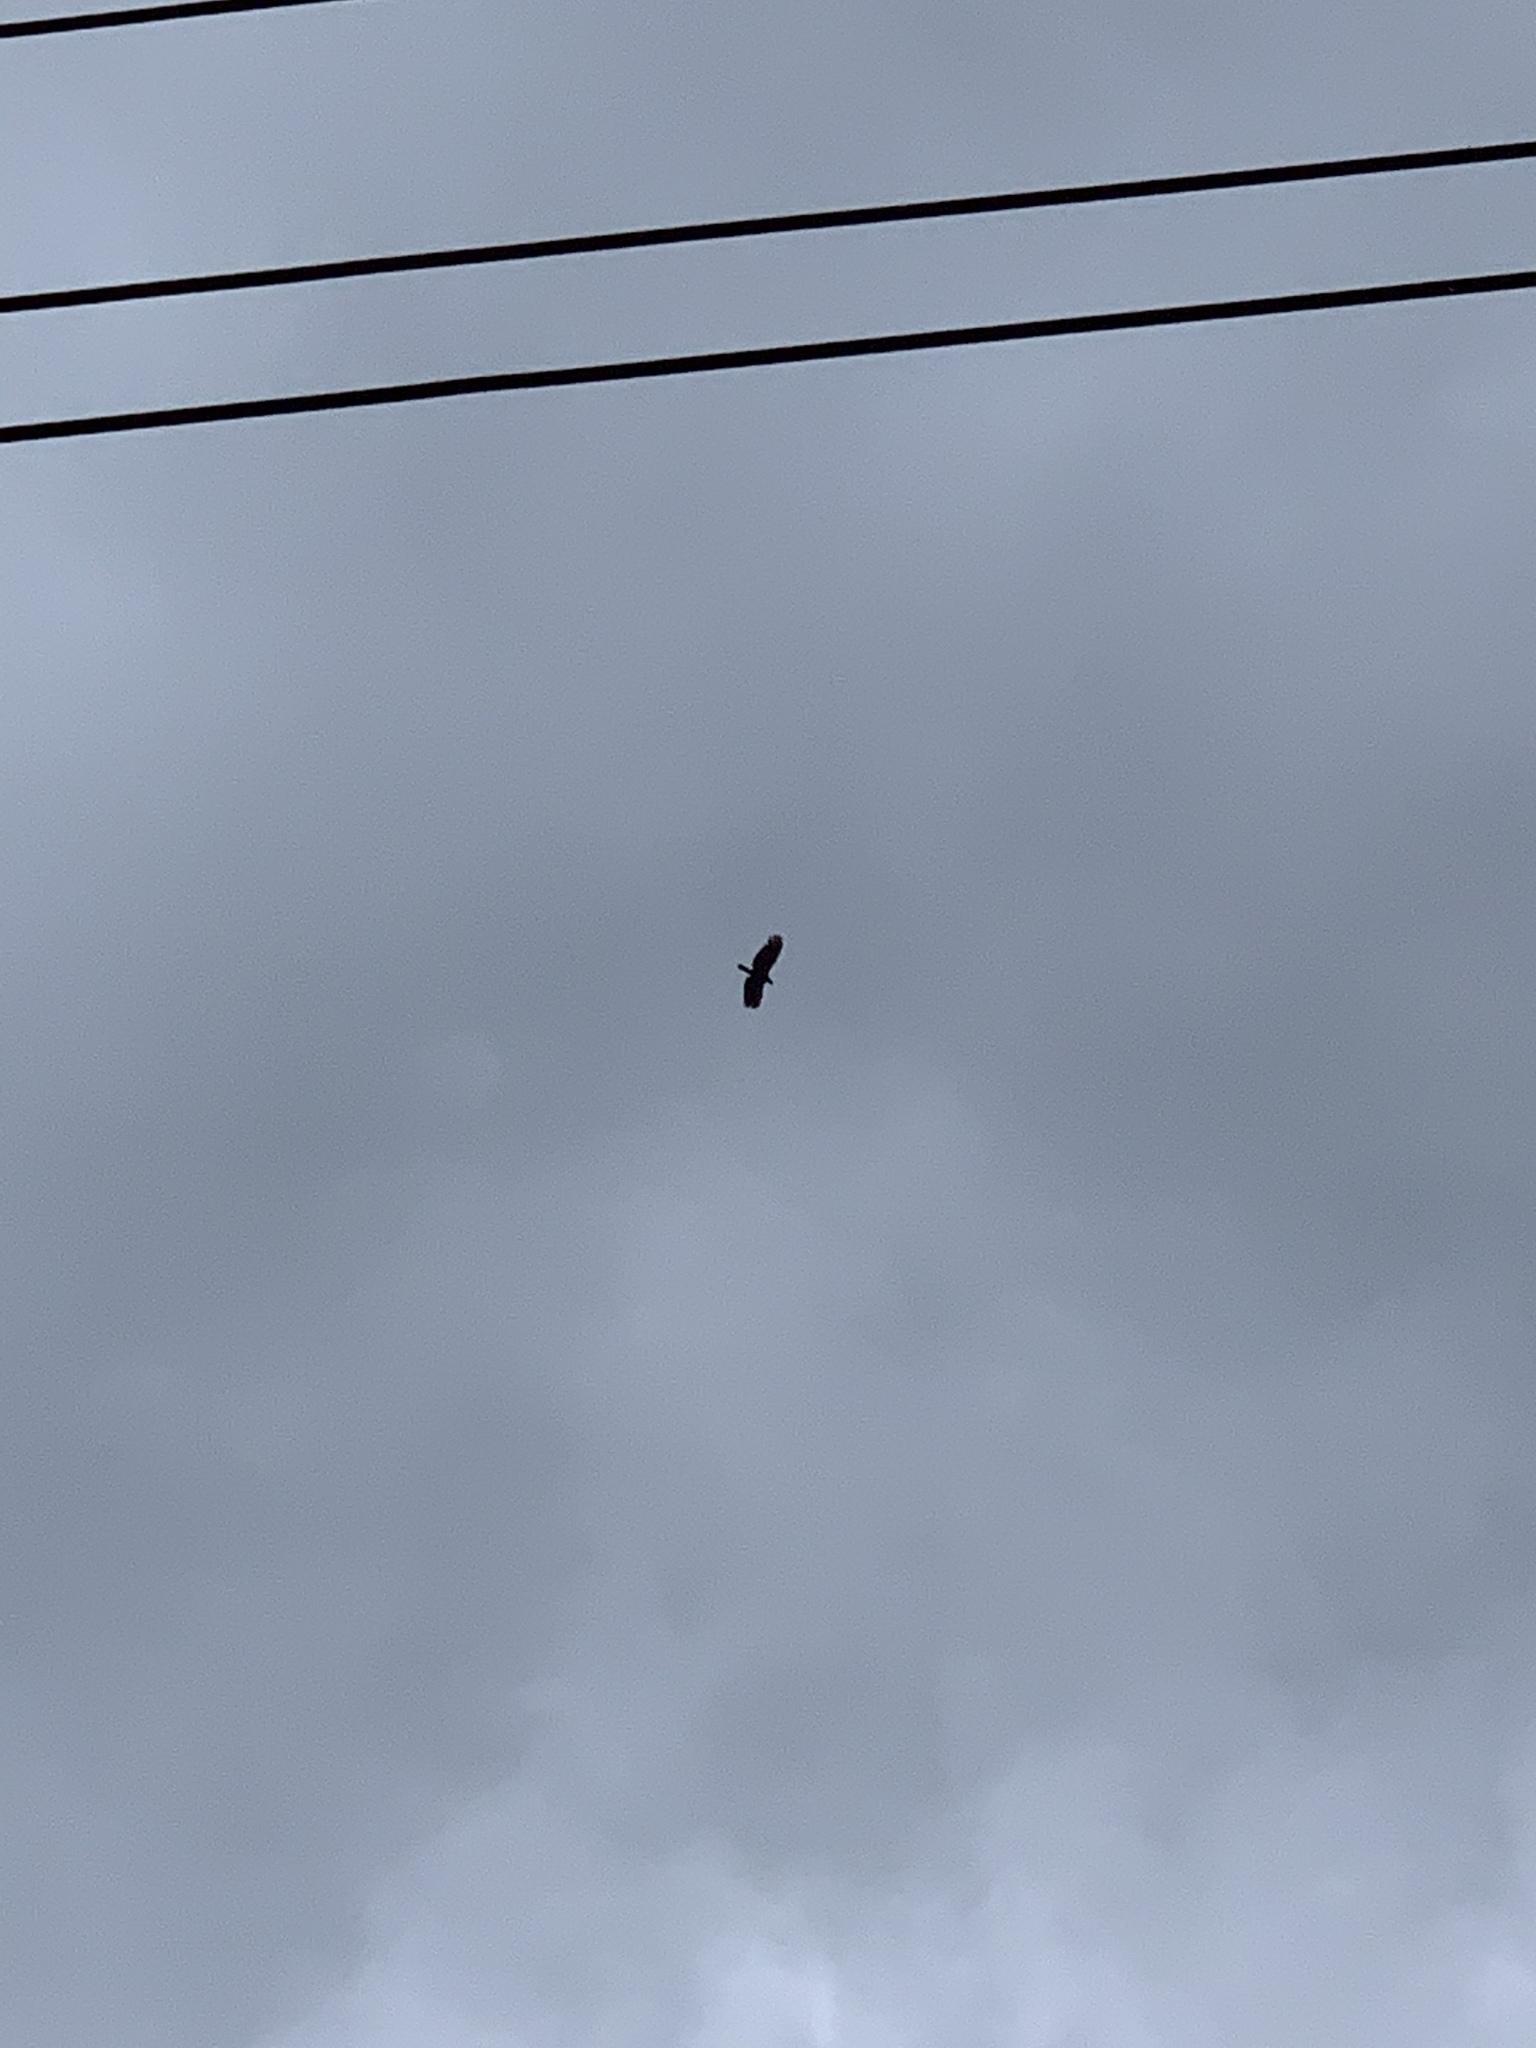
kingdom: Animalia
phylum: Chordata
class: Aves
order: Accipitriformes
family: Accipitridae
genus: Spilornis
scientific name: Spilornis cheela
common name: Crested serpent eagle
